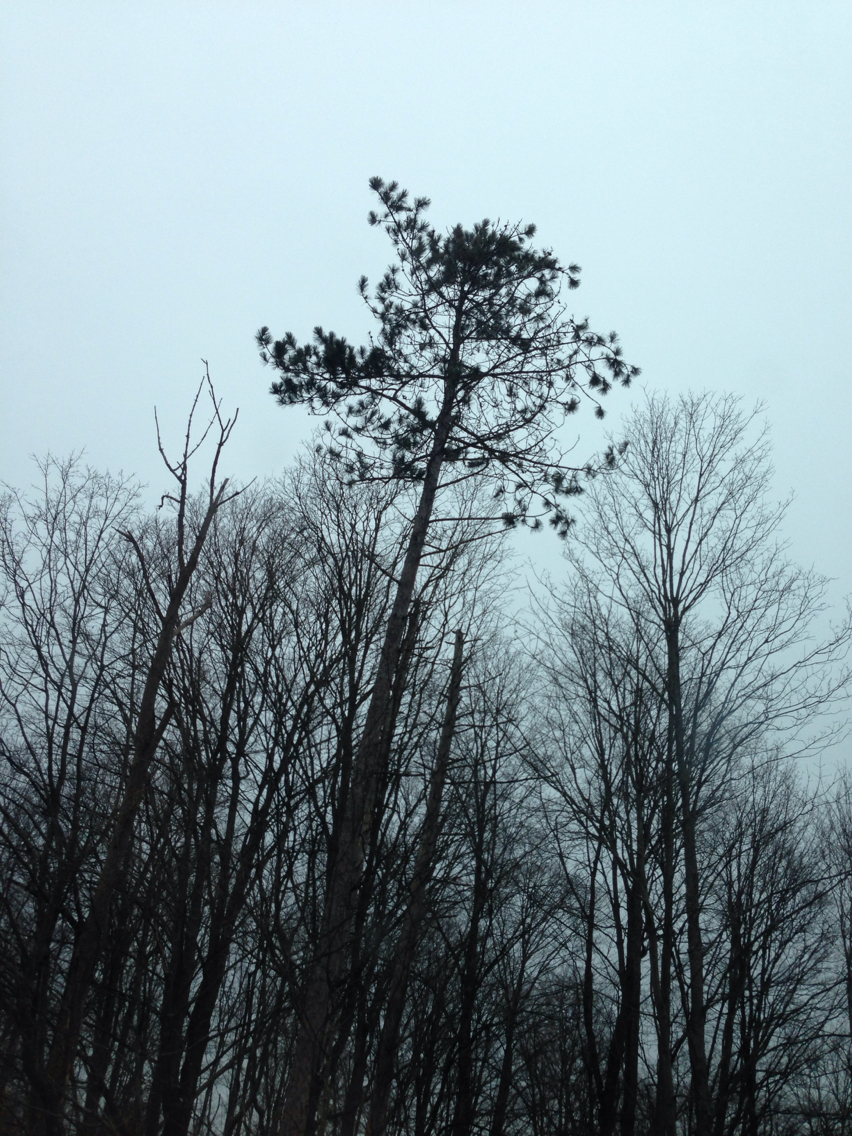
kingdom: Plantae
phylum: Tracheophyta
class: Pinopsida
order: Pinales
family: Pinaceae
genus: Pinus
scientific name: Pinus resinosa
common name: Norway pine
